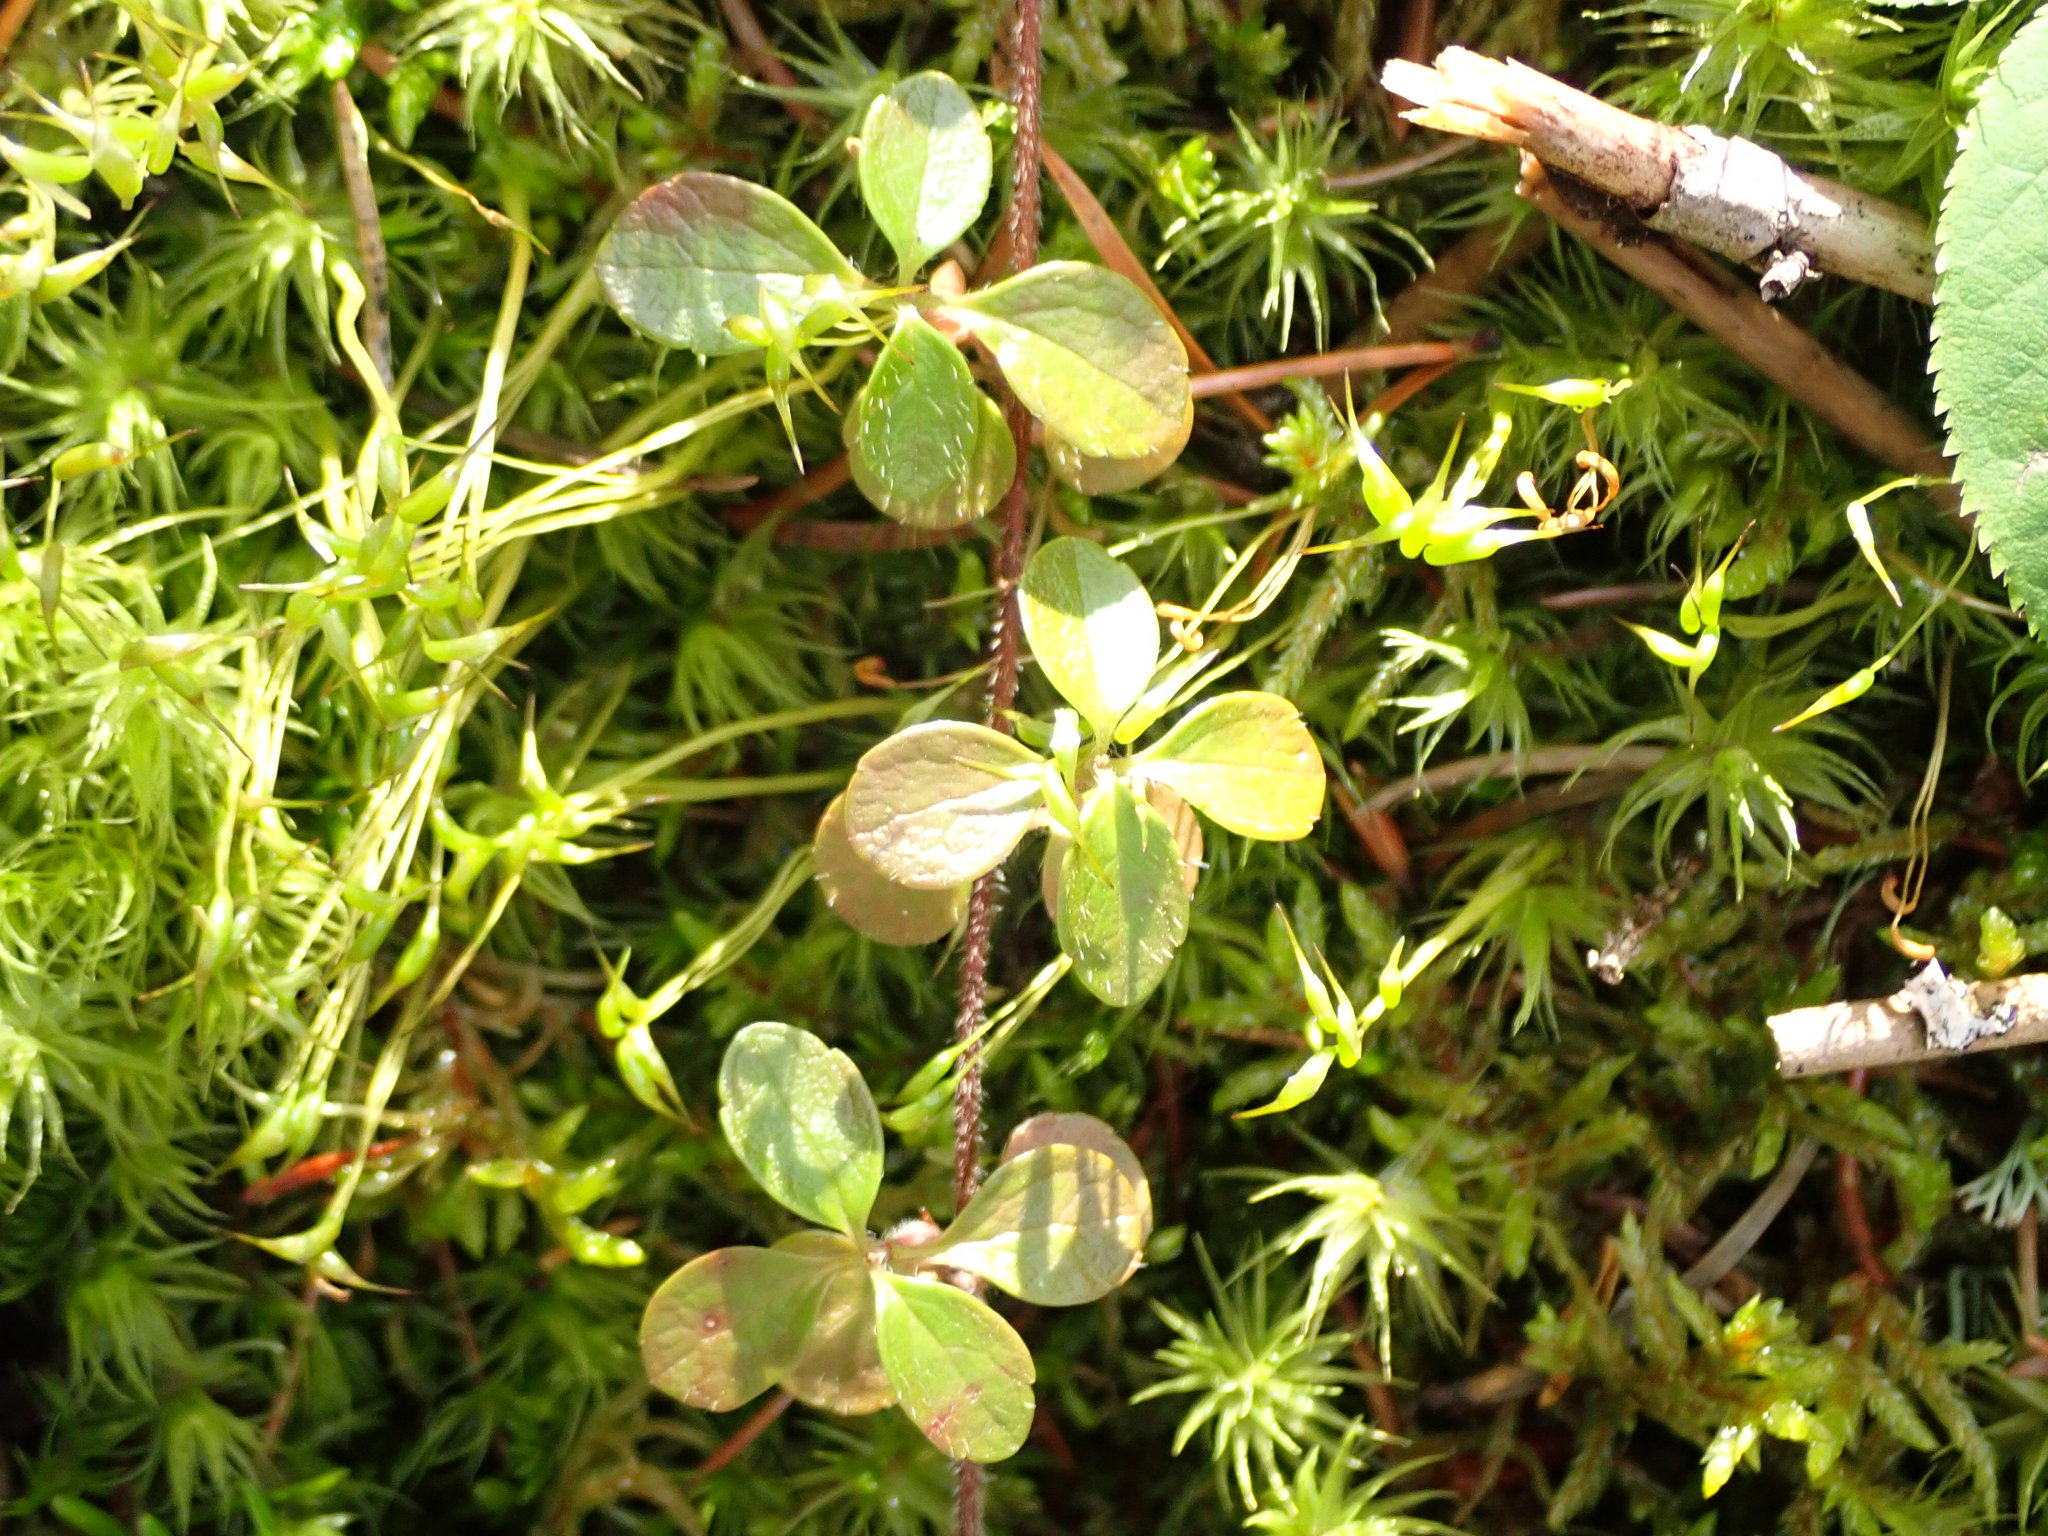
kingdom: Plantae
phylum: Tracheophyta
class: Magnoliopsida
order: Dipsacales
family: Caprifoliaceae
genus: Linnaea
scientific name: Linnaea borealis
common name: Twinflower
